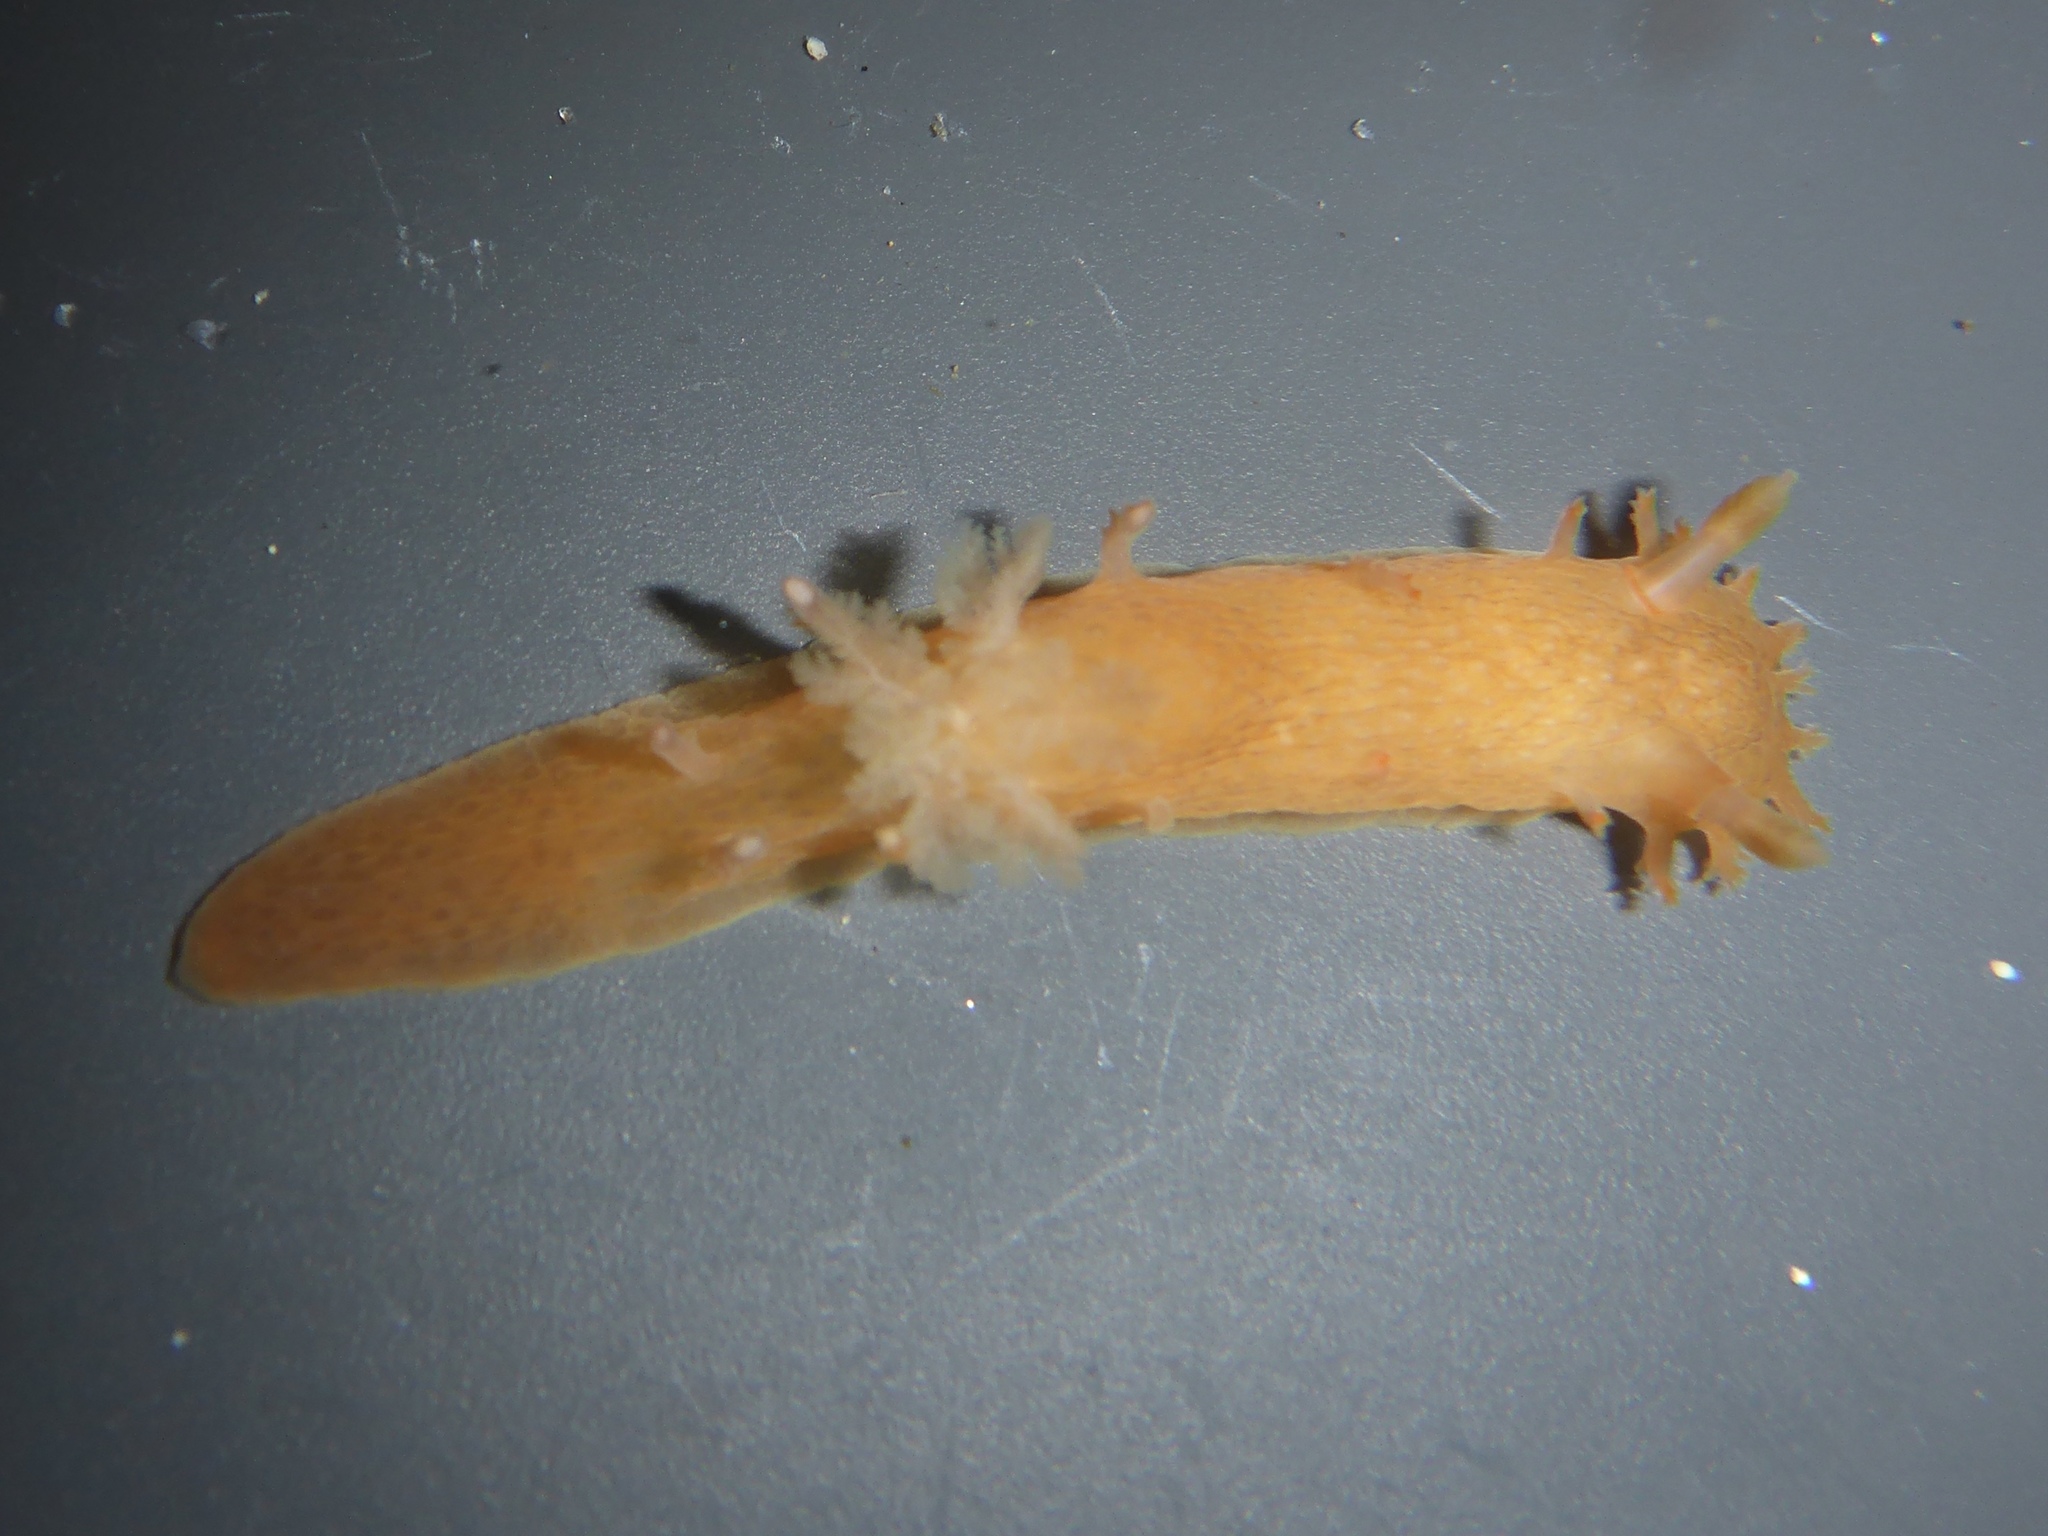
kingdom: Animalia
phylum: Mollusca
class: Gastropoda
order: Nudibranchia
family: Polyceridae
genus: Triopha
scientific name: Triopha maculata
